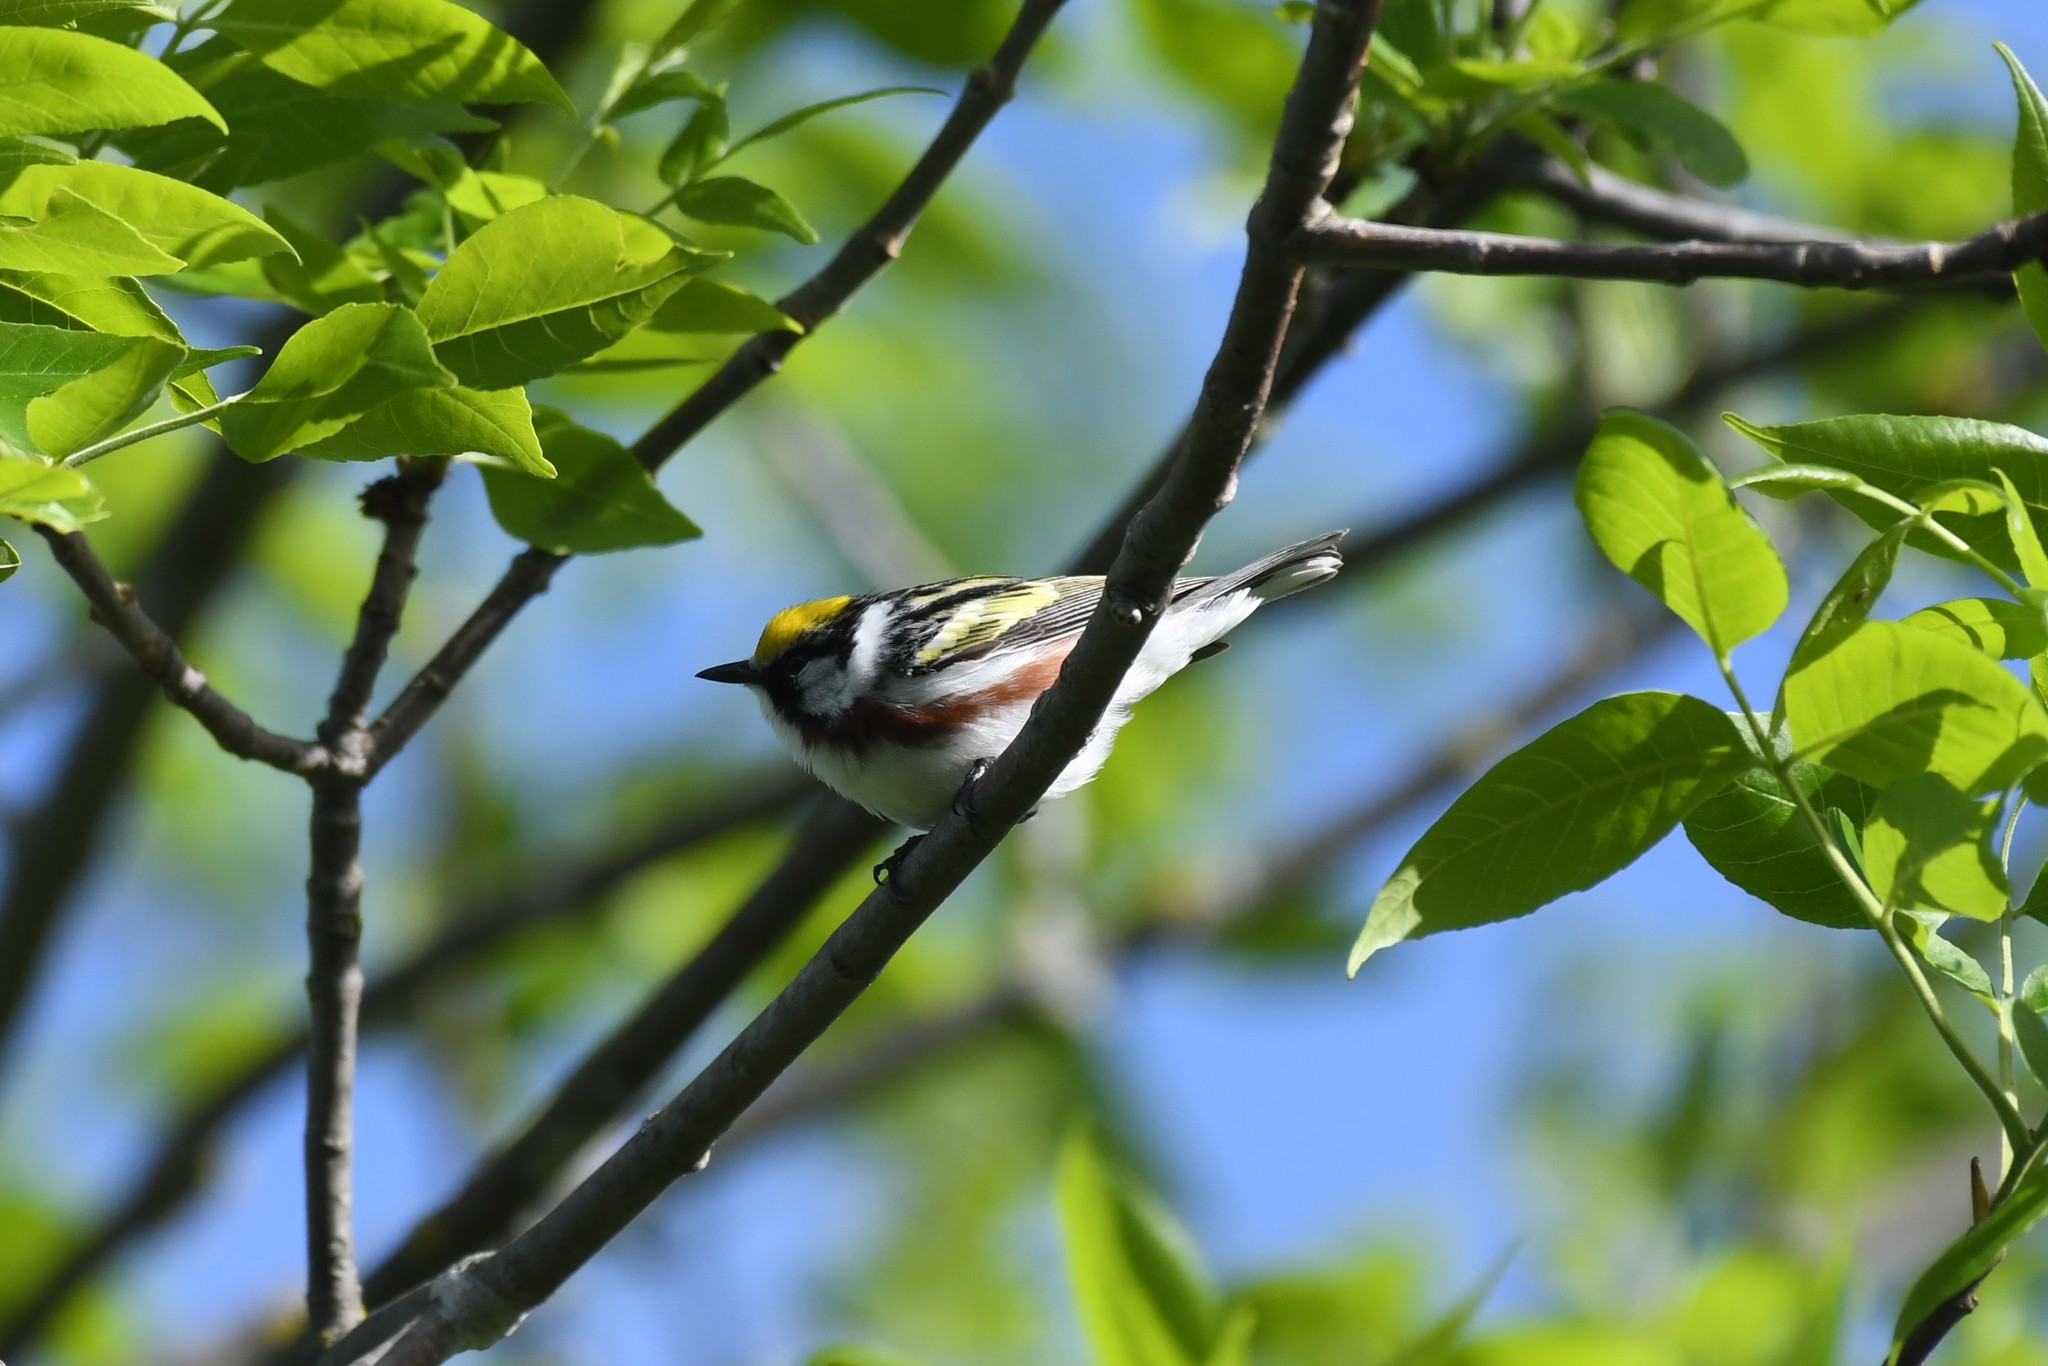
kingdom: Animalia
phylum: Chordata
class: Aves
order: Passeriformes
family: Parulidae
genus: Setophaga
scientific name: Setophaga pensylvanica
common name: Chestnut-sided warbler
